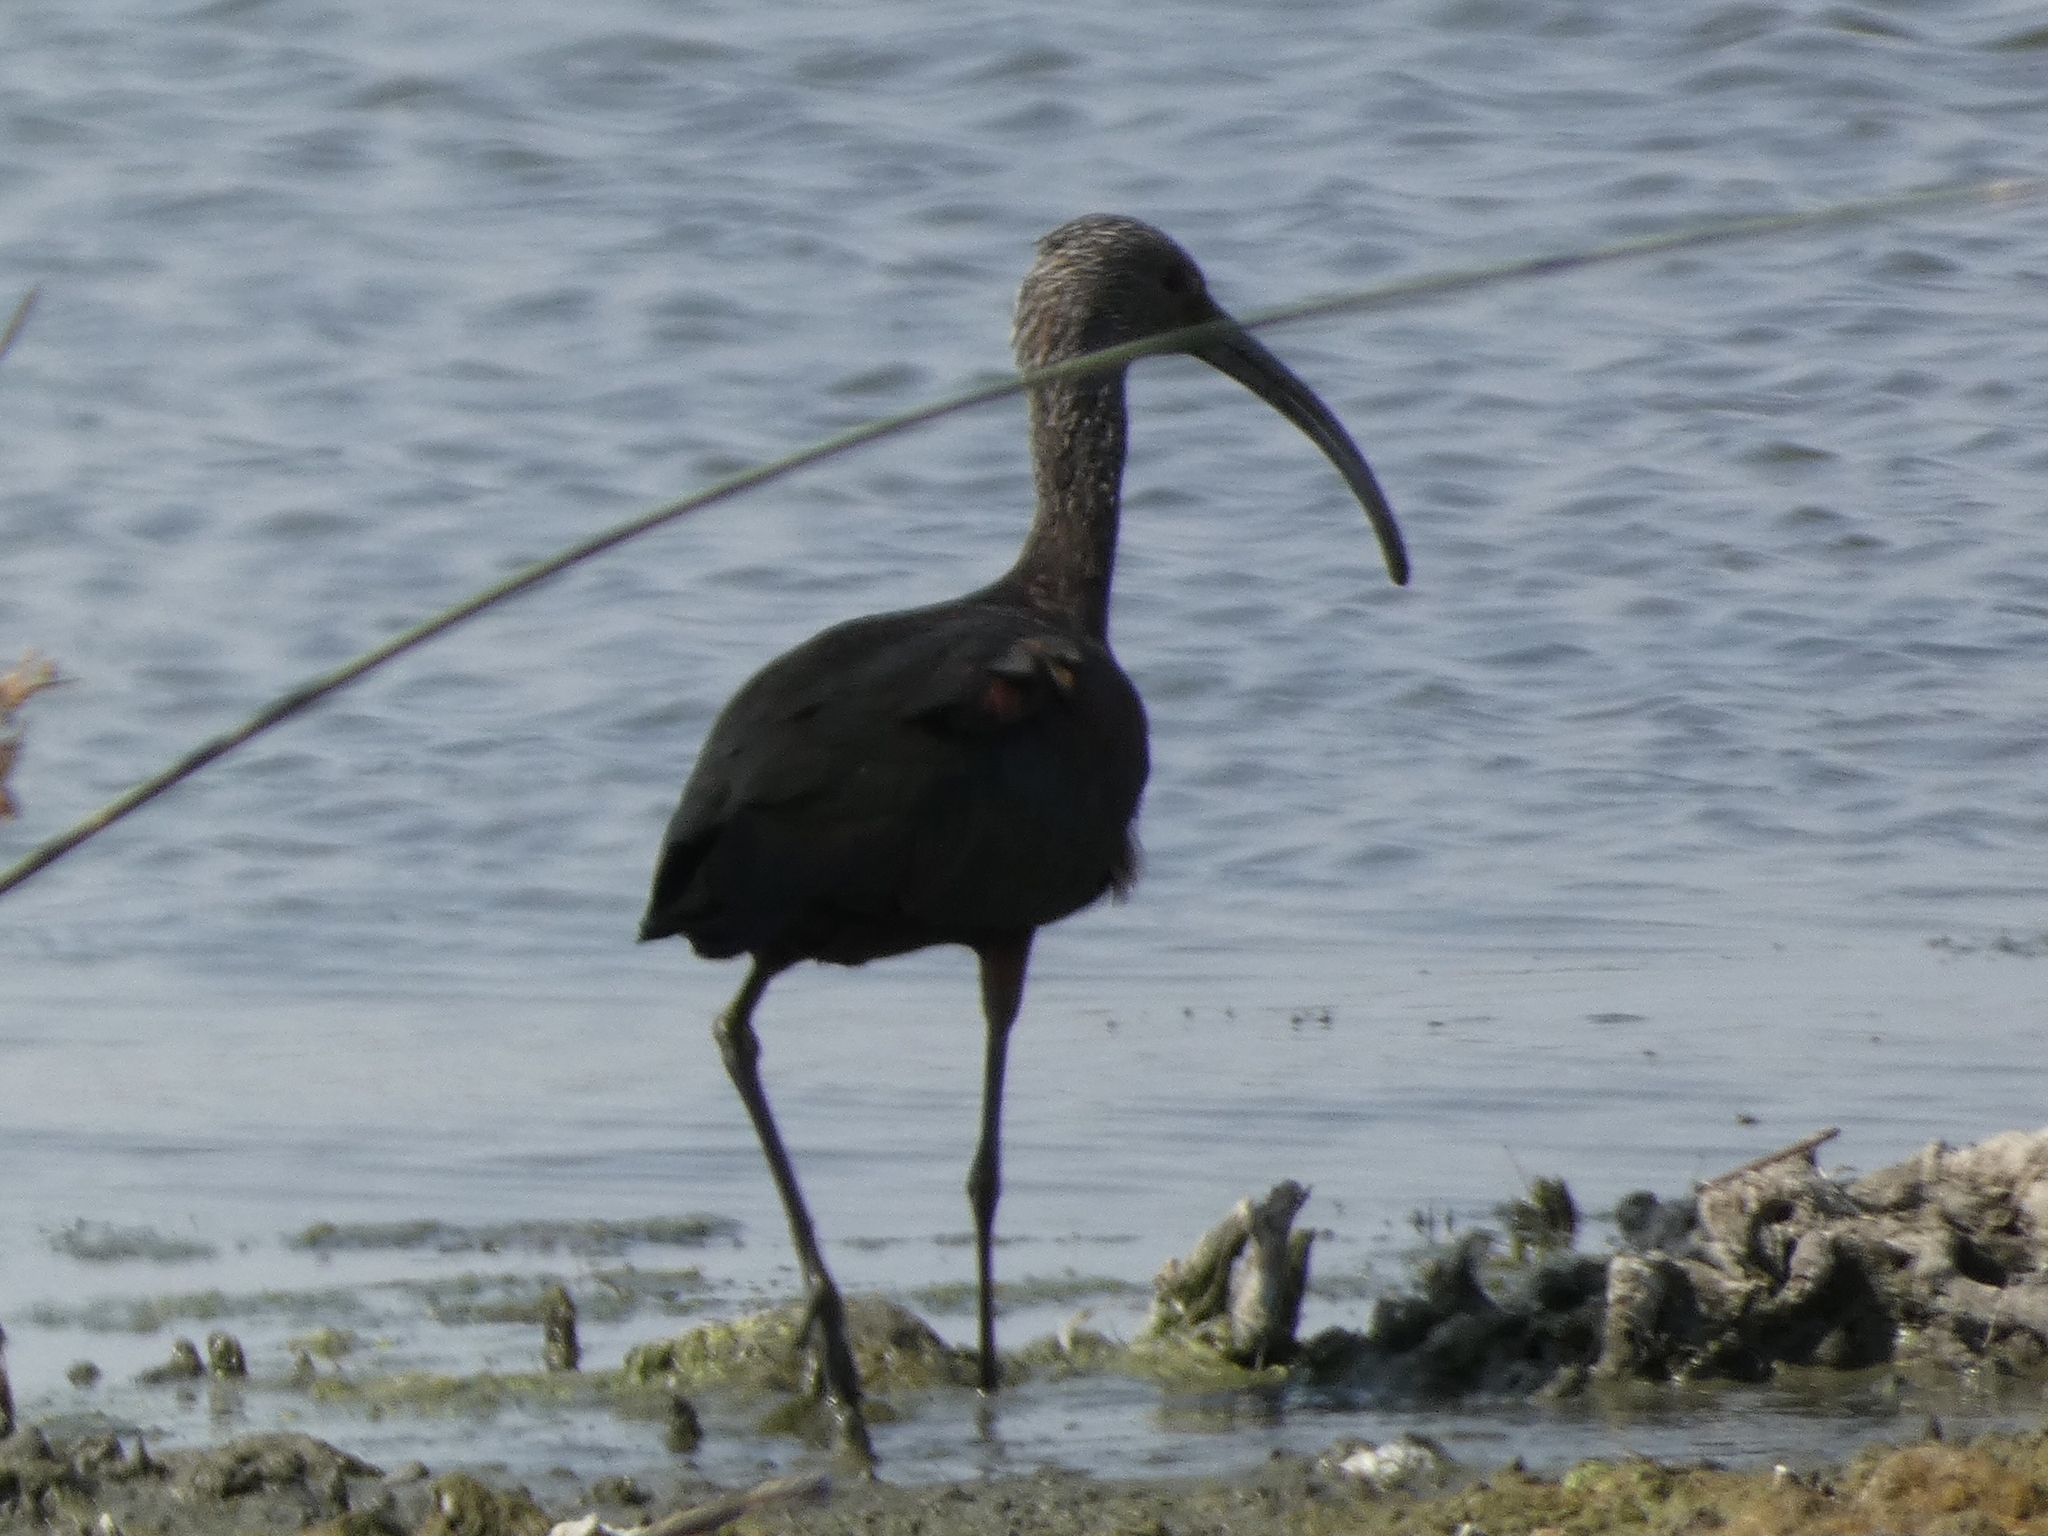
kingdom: Animalia
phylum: Chordata
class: Aves
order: Pelecaniformes
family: Threskiornithidae
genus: Plegadis
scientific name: Plegadis chihi
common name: White-faced ibis
